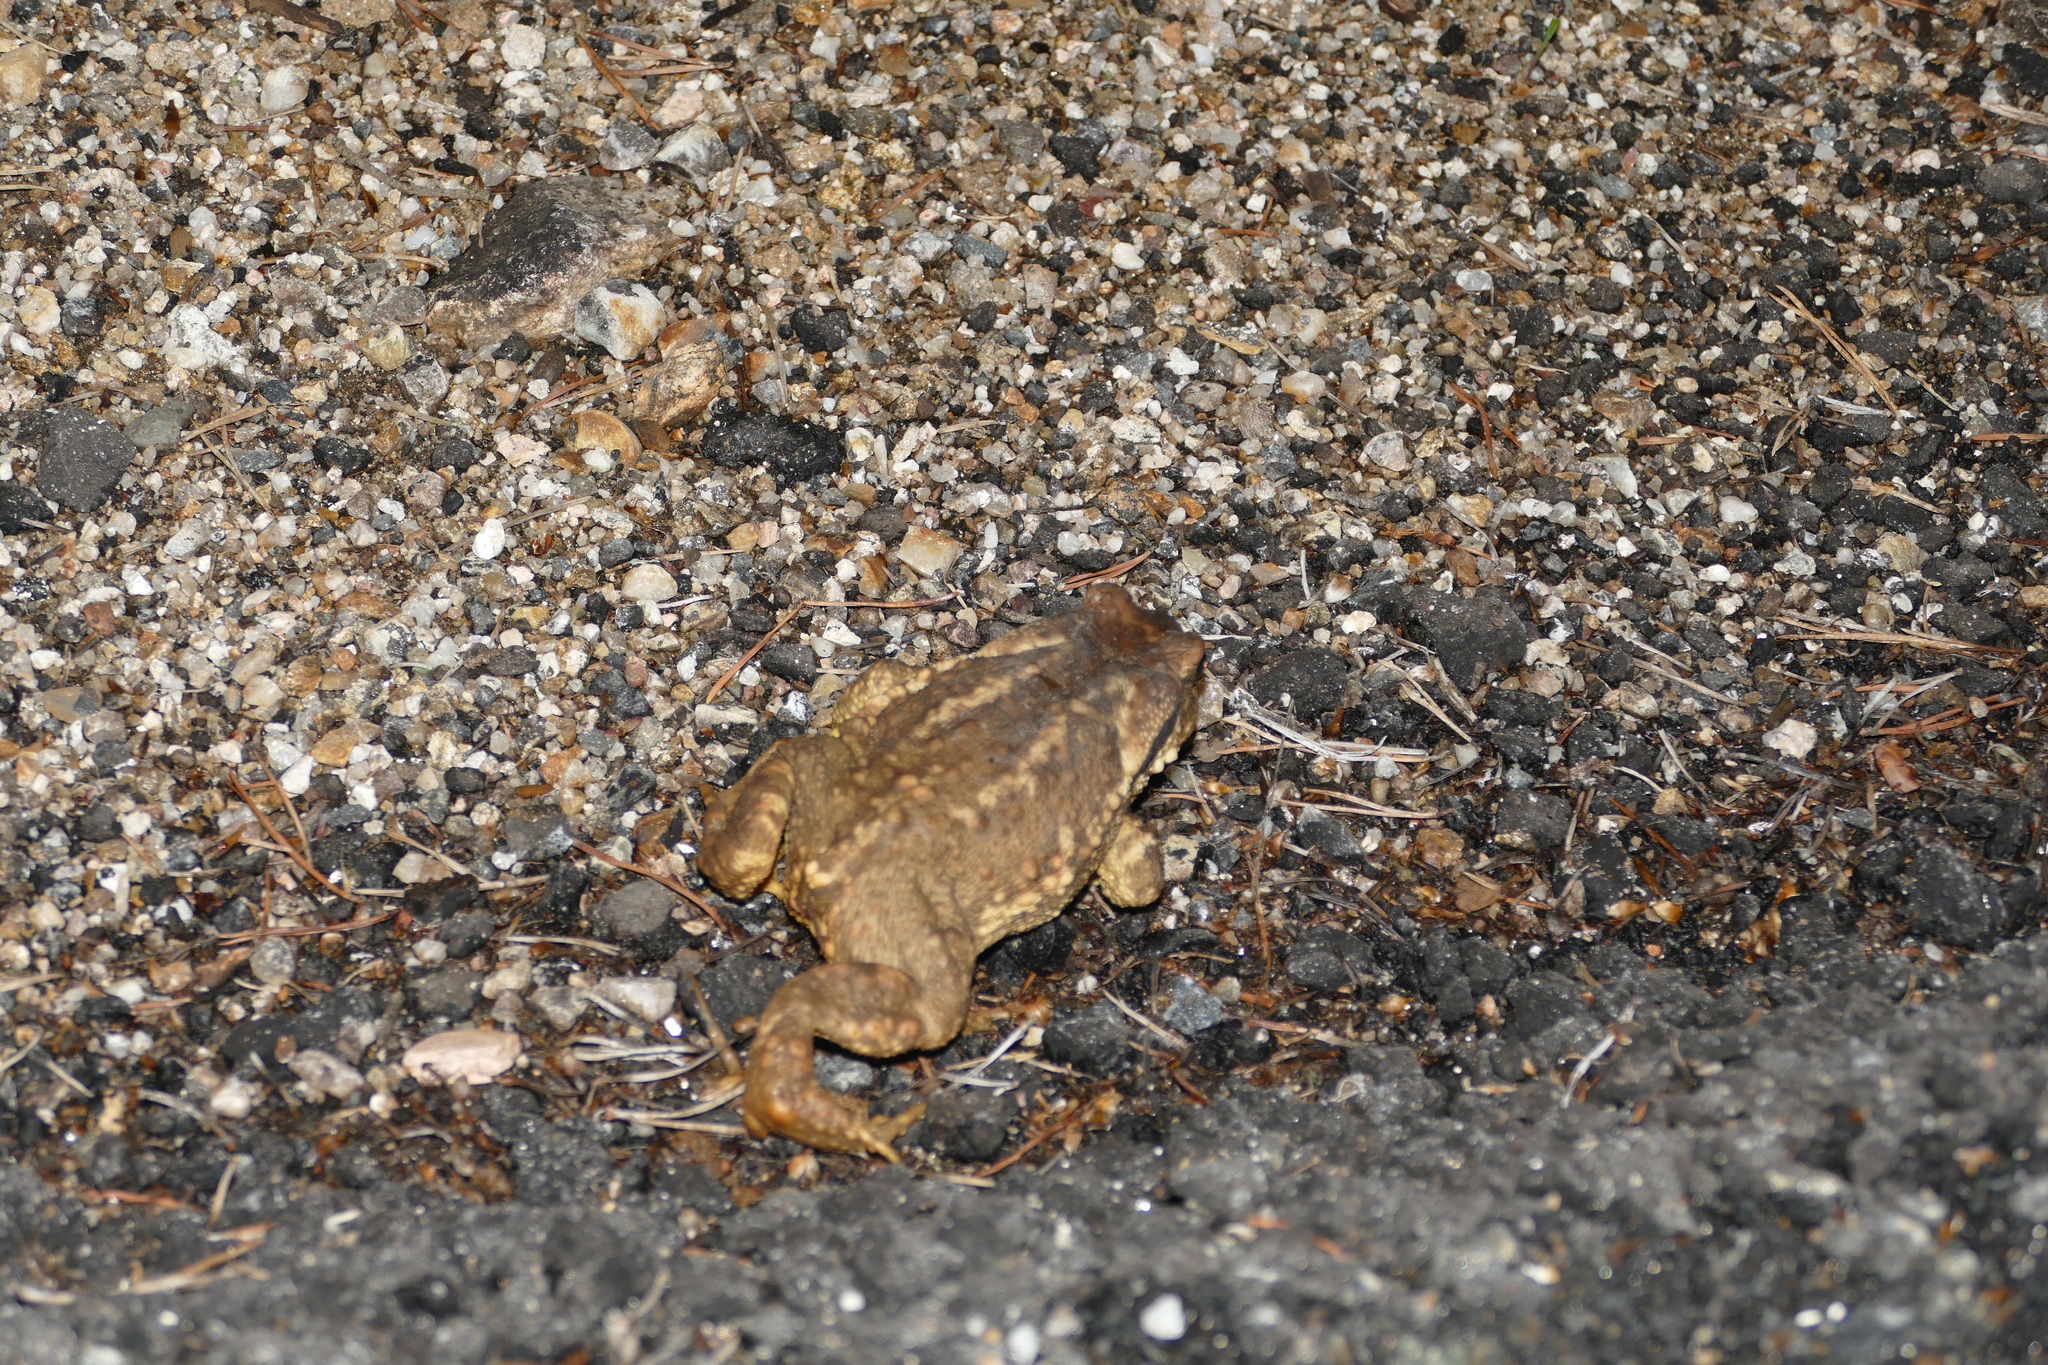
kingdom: Animalia
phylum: Chordata
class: Amphibia
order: Anura
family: Bufonidae
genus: Bufo
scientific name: Bufo spinosus
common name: Western common toad
